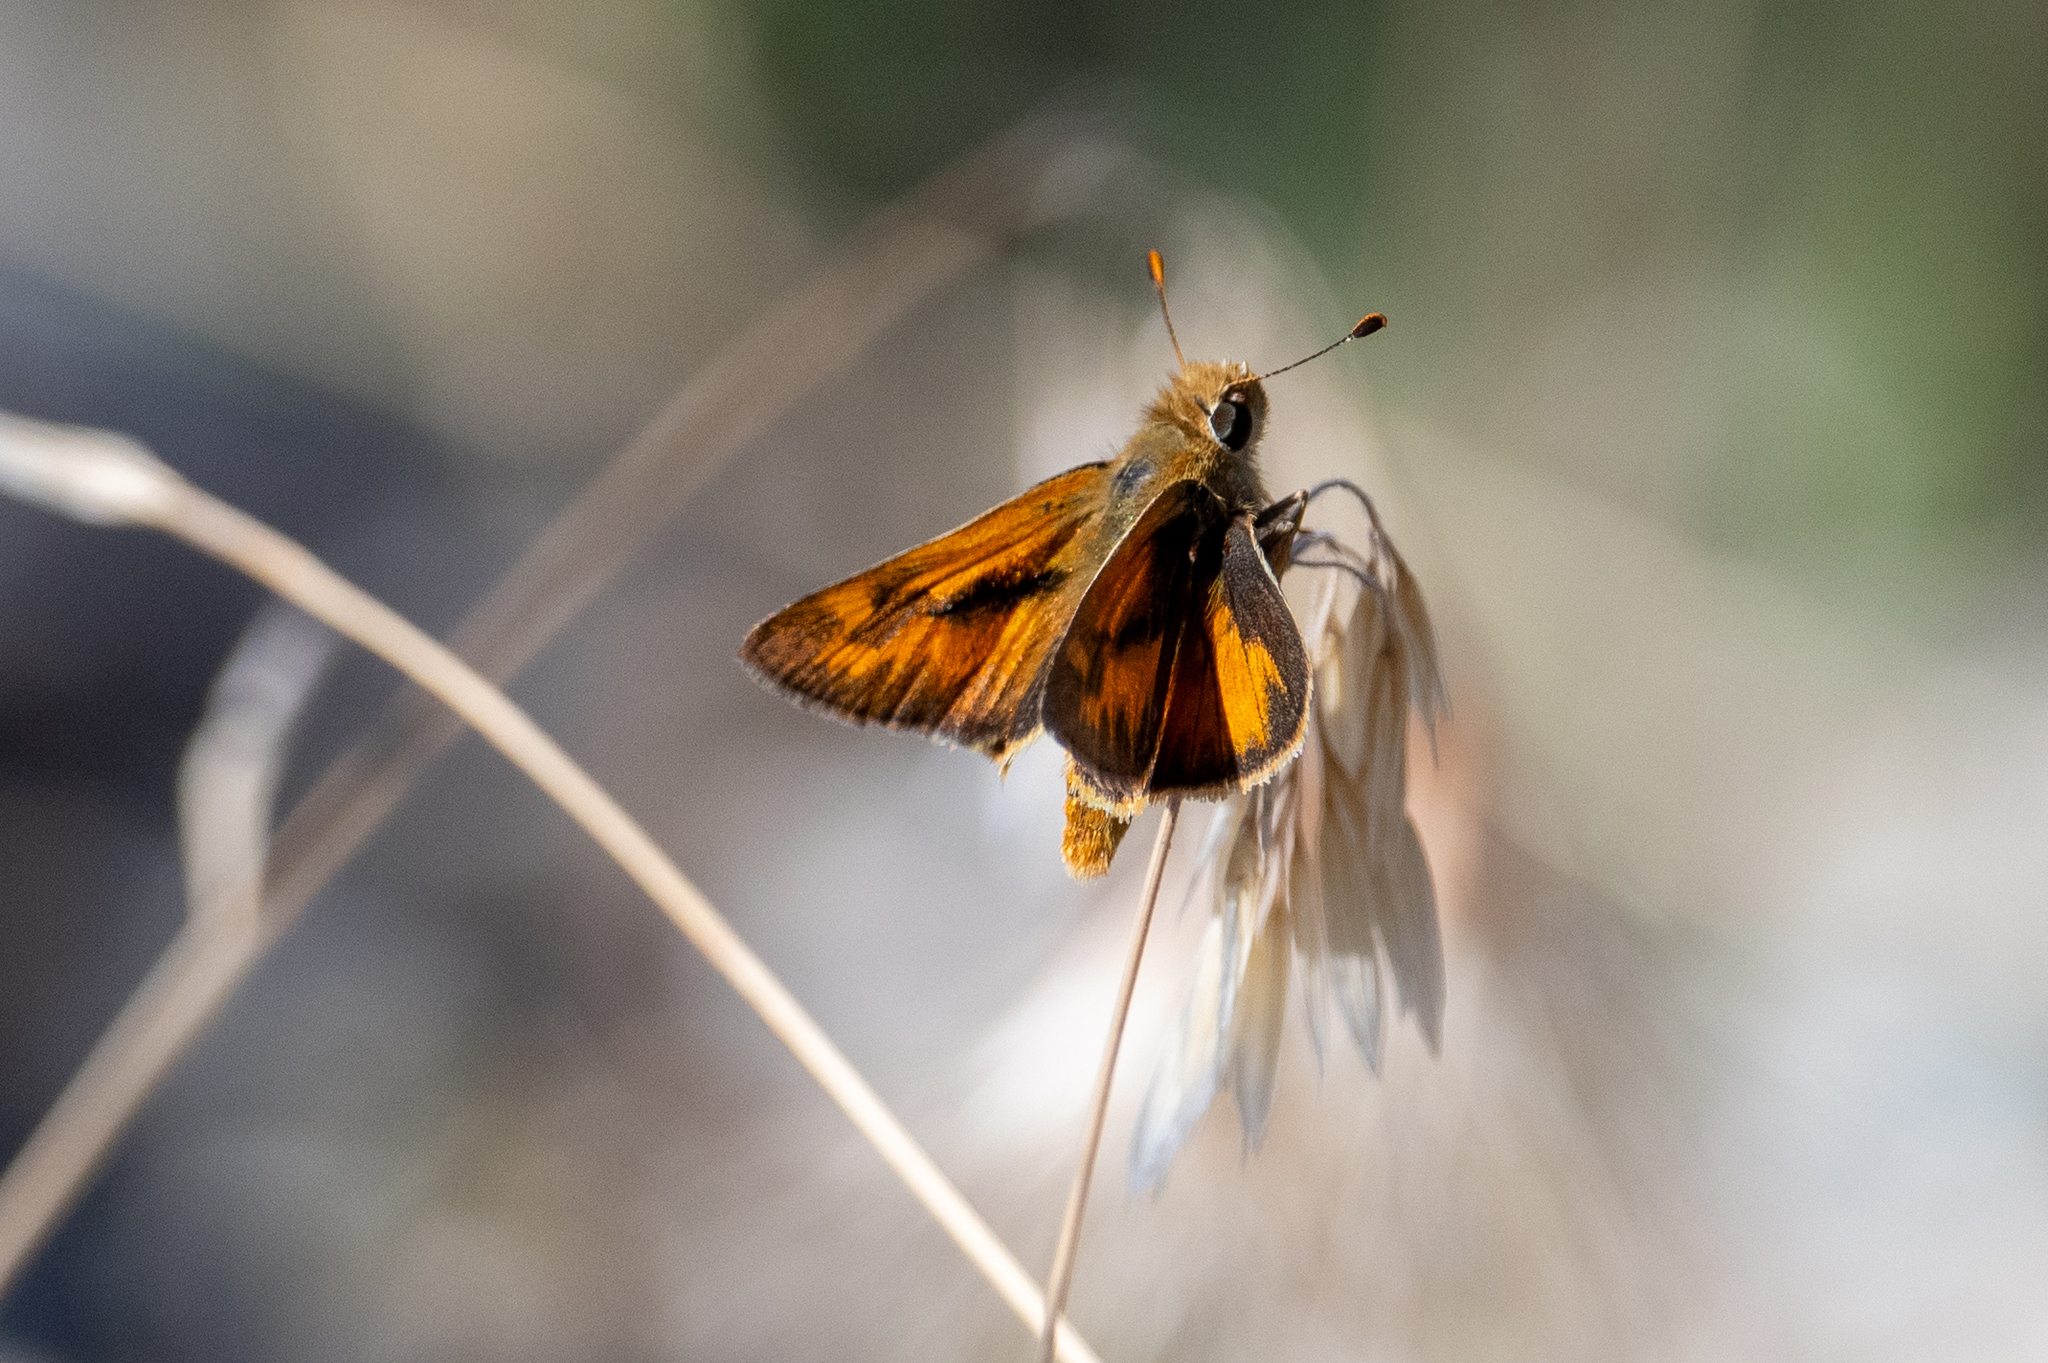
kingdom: Animalia
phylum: Arthropoda
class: Insecta
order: Lepidoptera
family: Hesperiidae
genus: Ochlodes
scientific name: Ochlodes sylvanoides
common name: Woodland skipper
